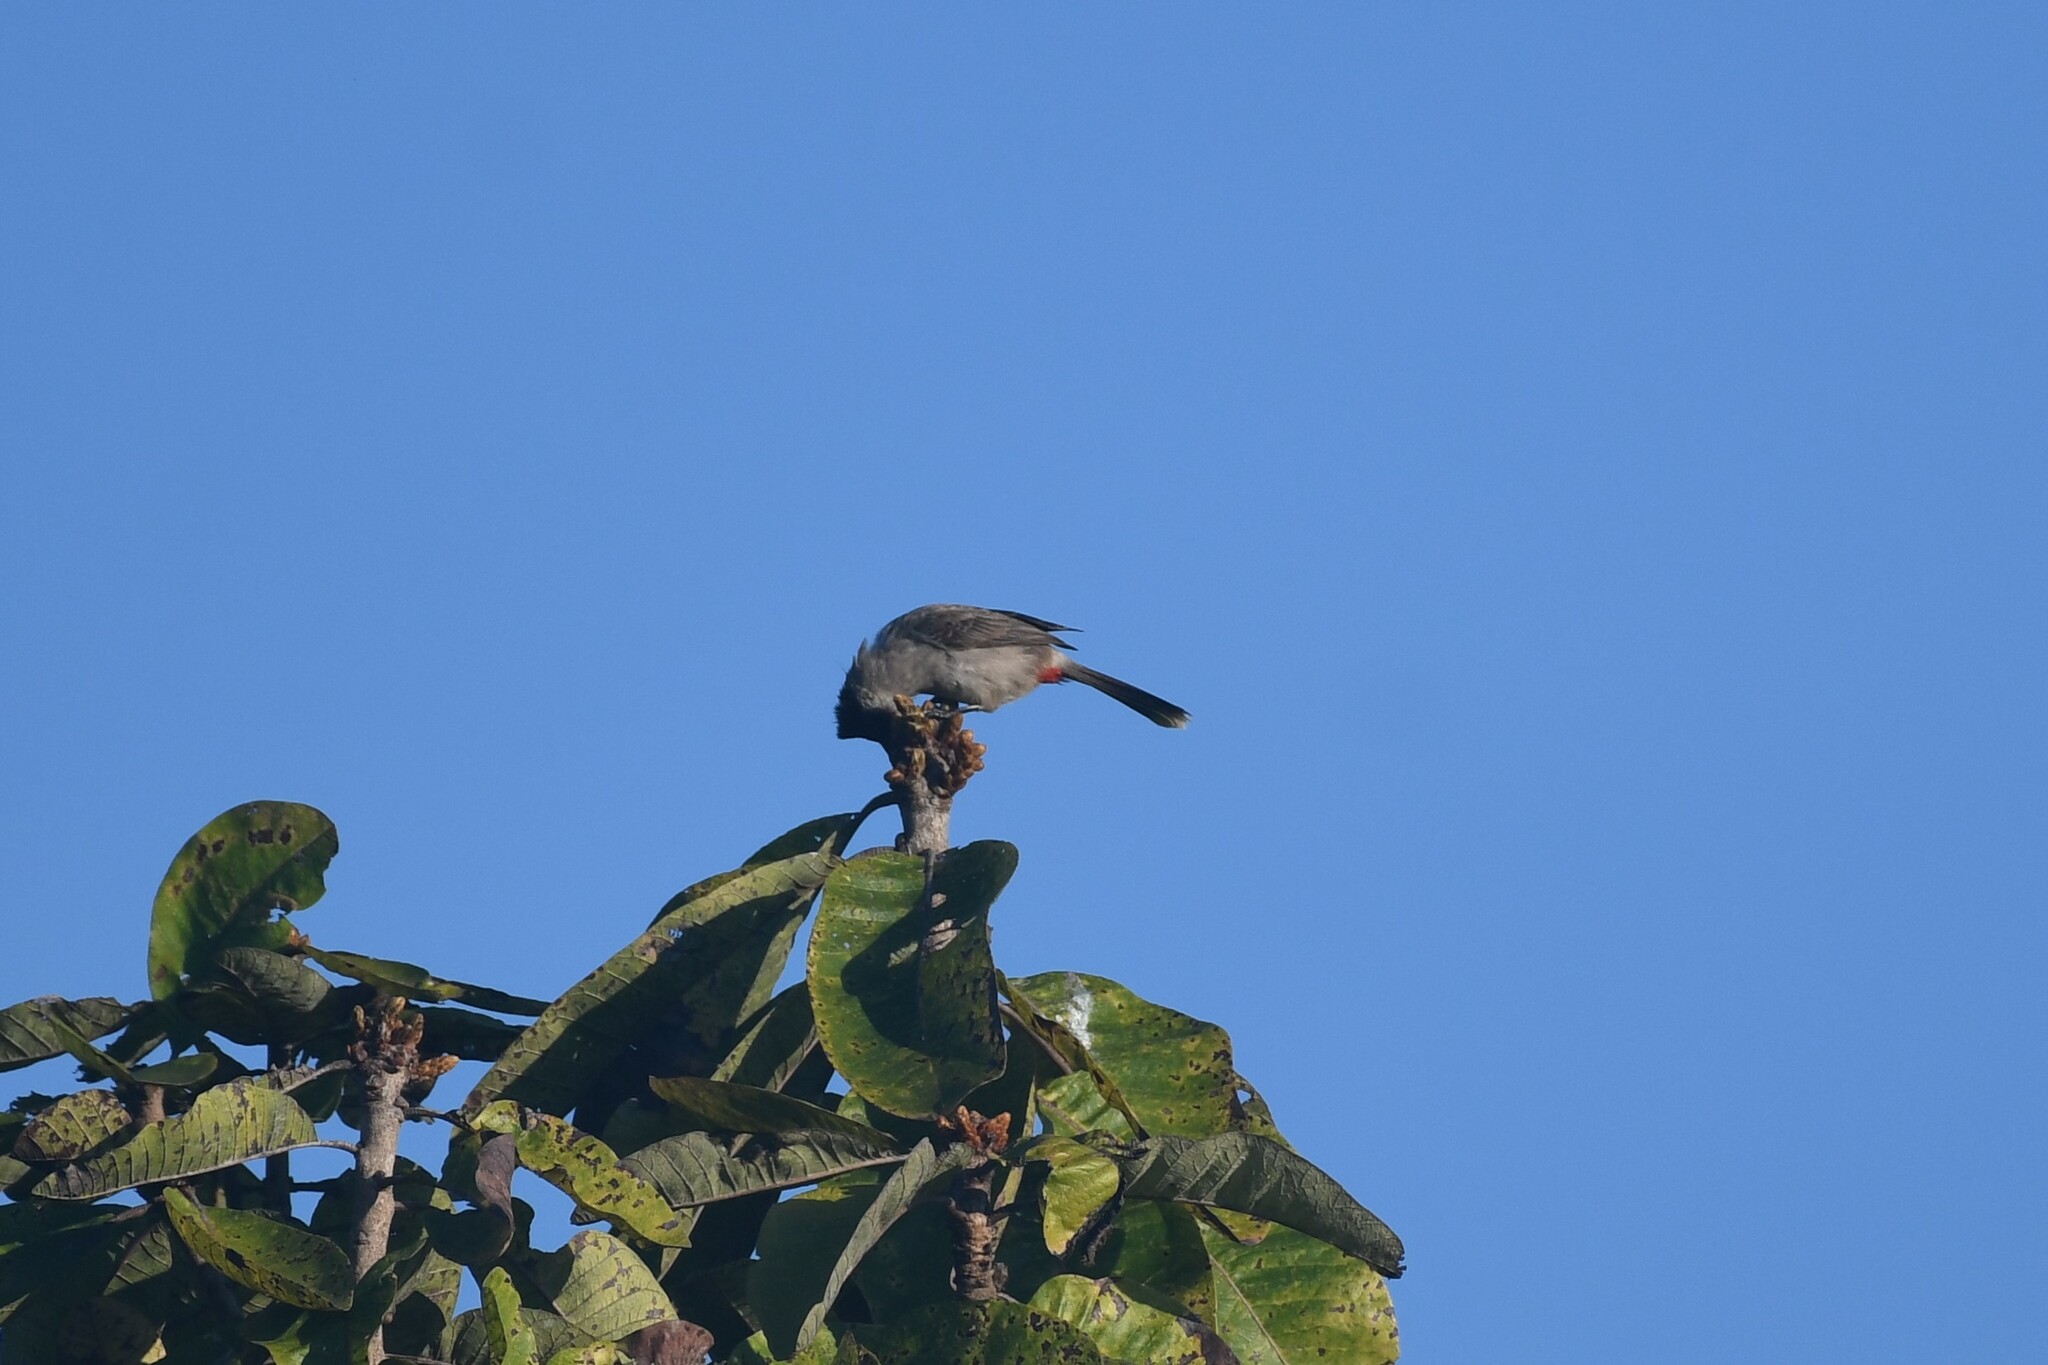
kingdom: Animalia
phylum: Chordata
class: Aves
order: Passeriformes
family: Pycnonotidae
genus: Pycnonotus
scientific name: Pycnonotus aurigaster
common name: Sooty-headed bulbul
